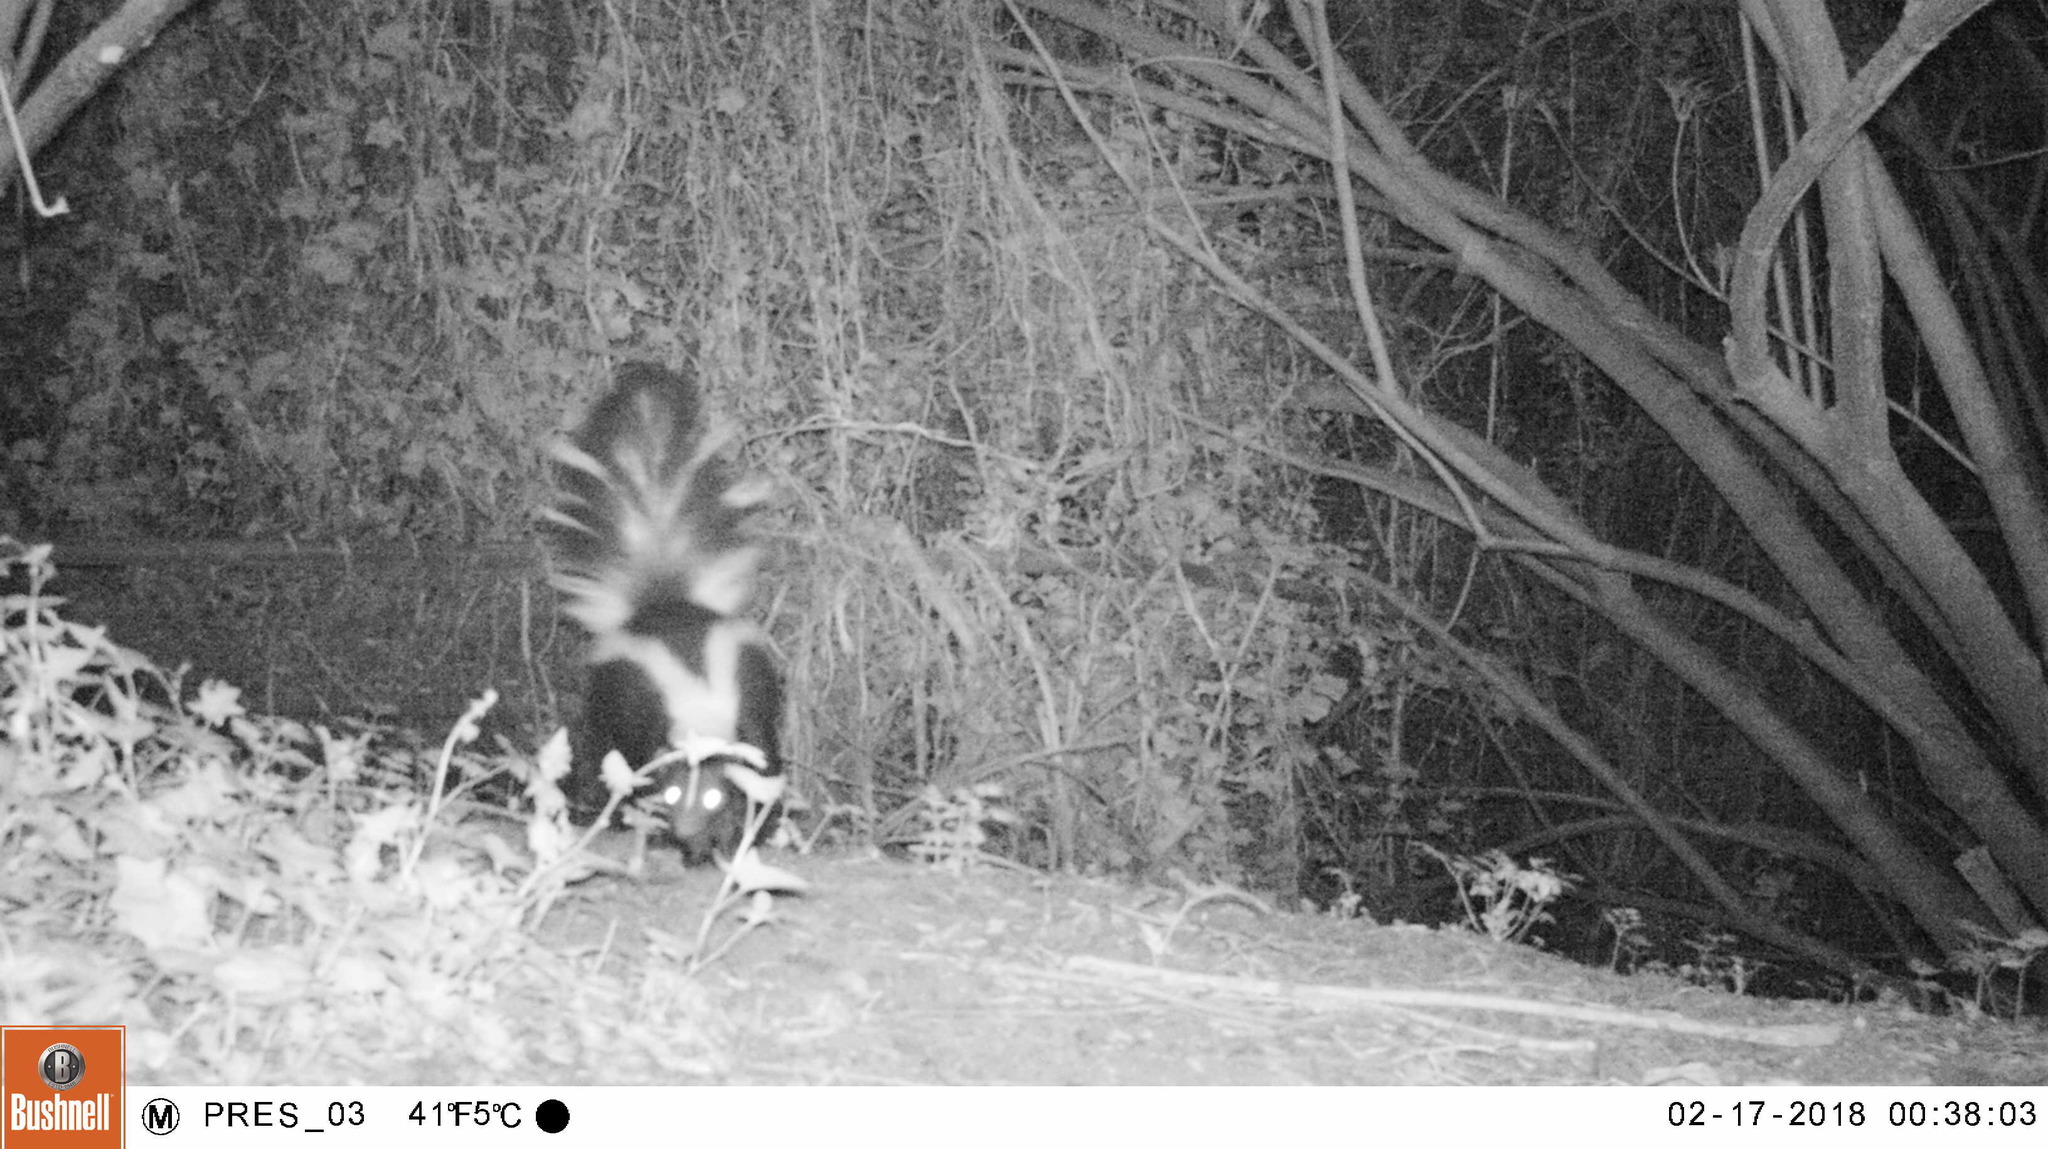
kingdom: Animalia
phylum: Chordata
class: Mammalia
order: Carnivora
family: Mephitidae
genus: Mephitis
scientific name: Mephitis mephitis
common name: Striped skunk
